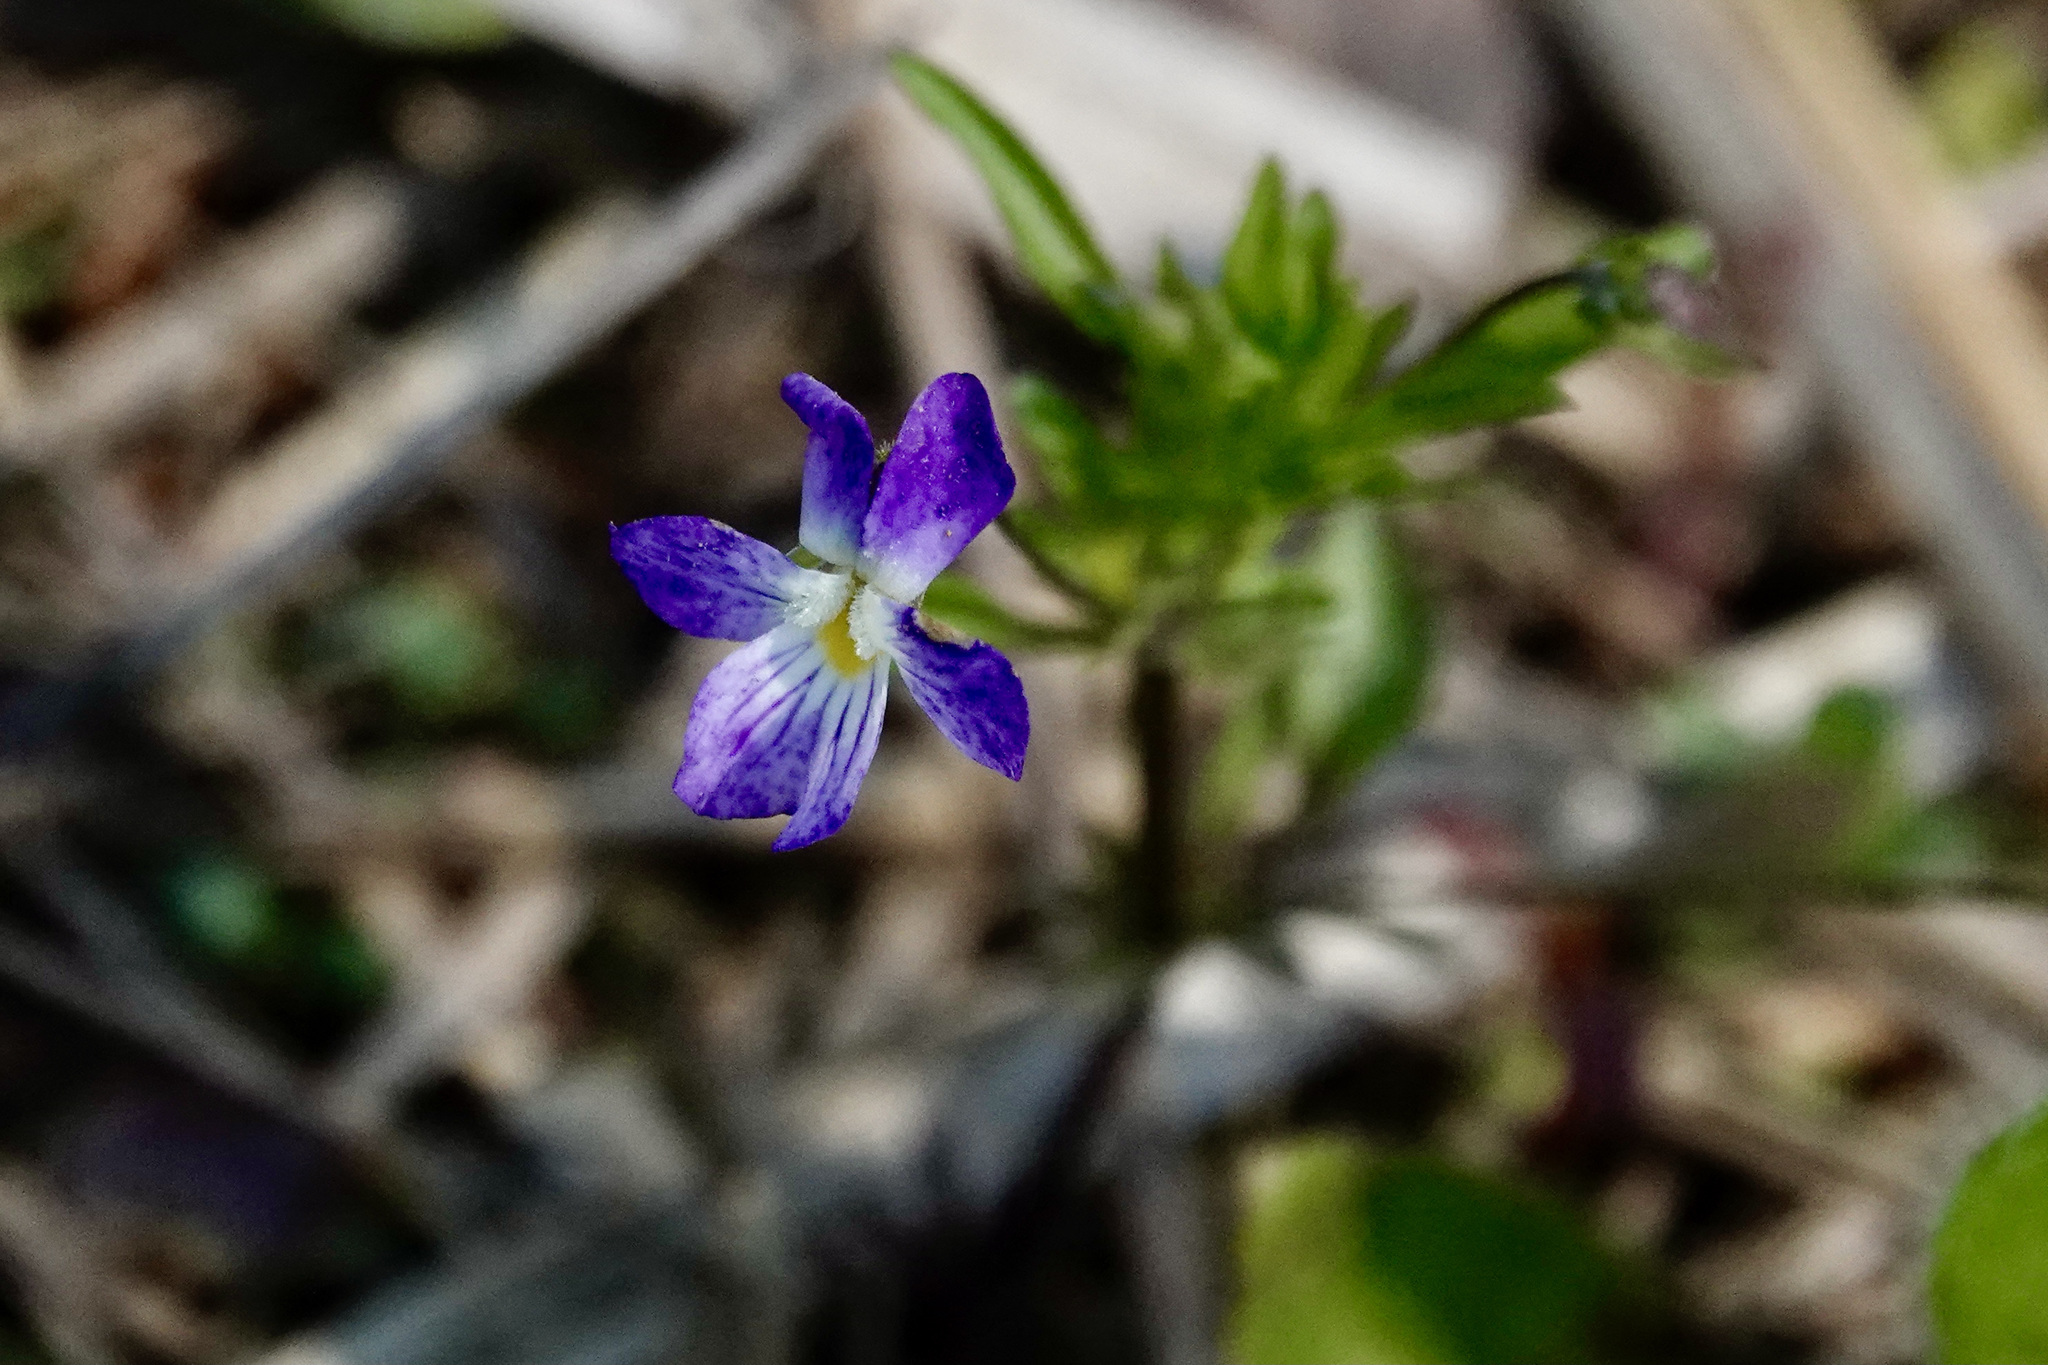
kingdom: Plantae
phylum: Tracheophyta
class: Magnoliopsida
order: Malpighiales
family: Violaceae
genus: Viola
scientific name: Viola rafinesquei
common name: American field pansy
